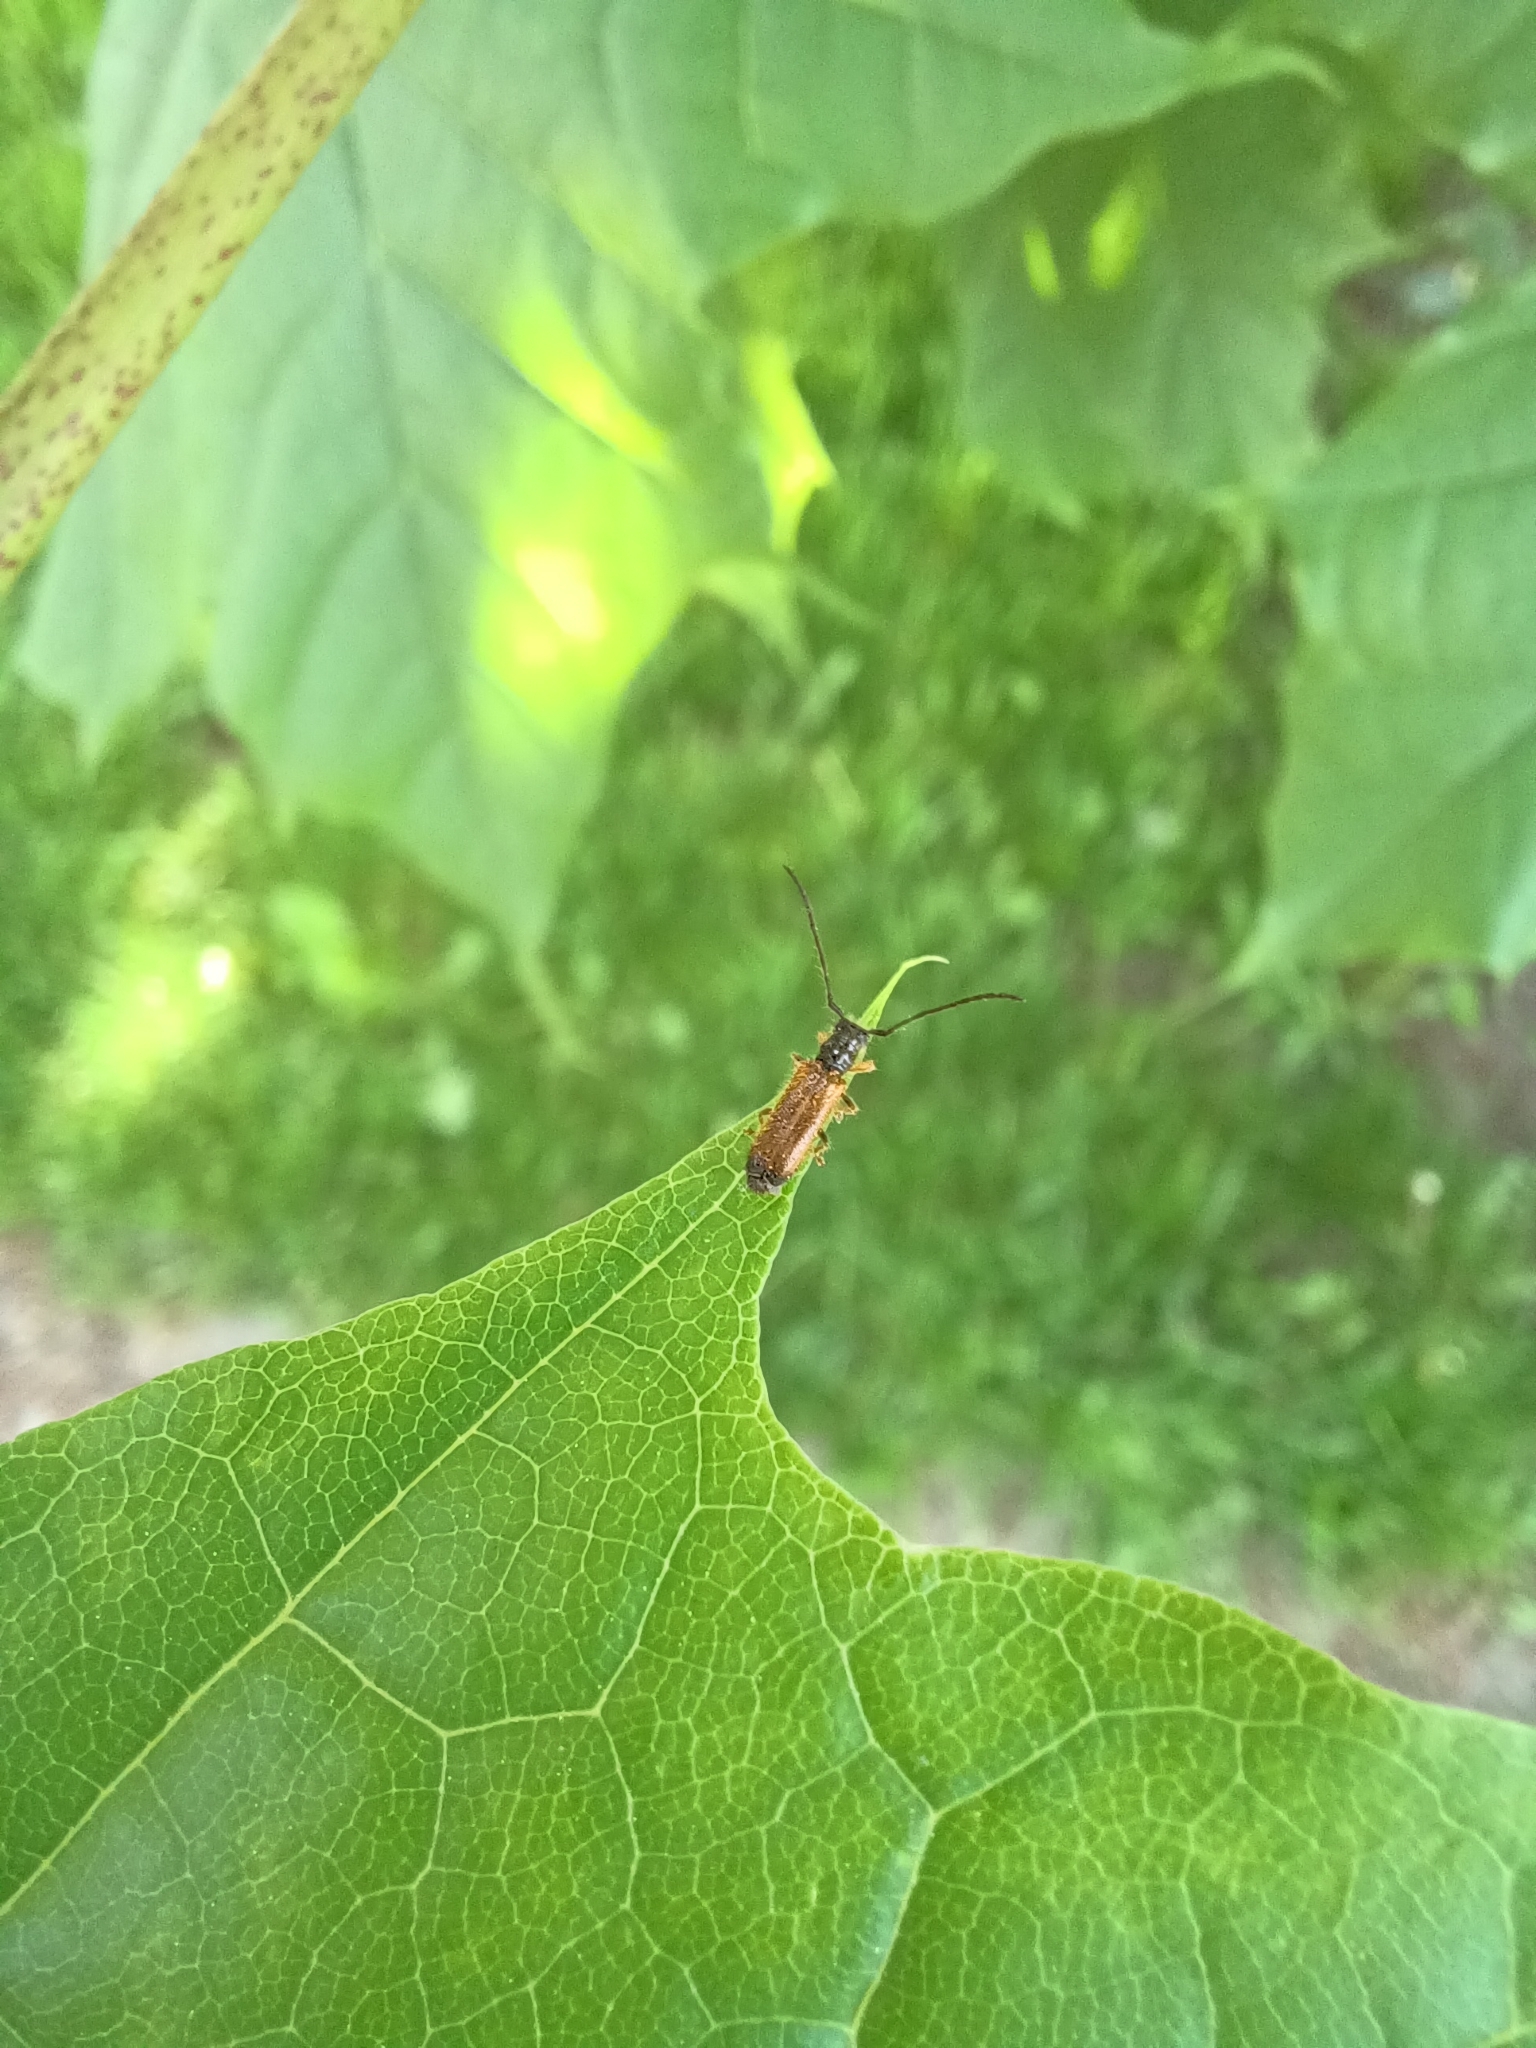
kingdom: Animalia
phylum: Arthropoda
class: Insecta
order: Coleoptera
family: Cerambycidae
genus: Tetrops
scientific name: Tetrops praeustus
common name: Plum beetle
